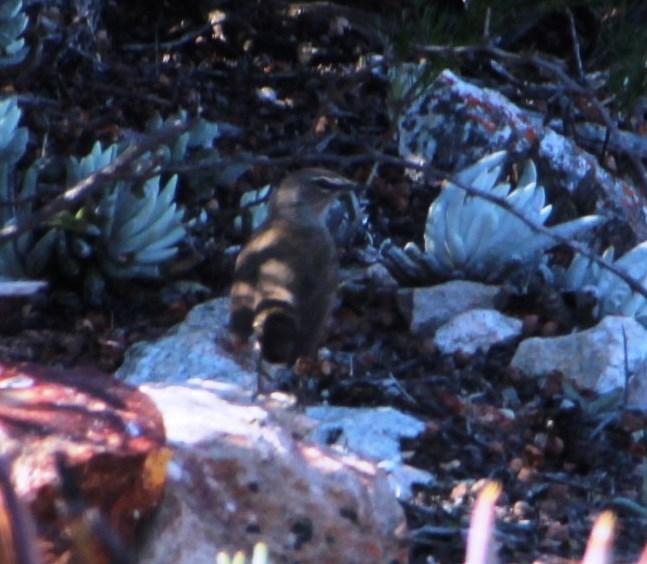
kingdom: Animalia
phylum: Chordata
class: Aves
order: Passeriformes
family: Muscicapidae
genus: Erythropygia
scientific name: Erythropygia coryphoeus
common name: Karoo scrub robin
